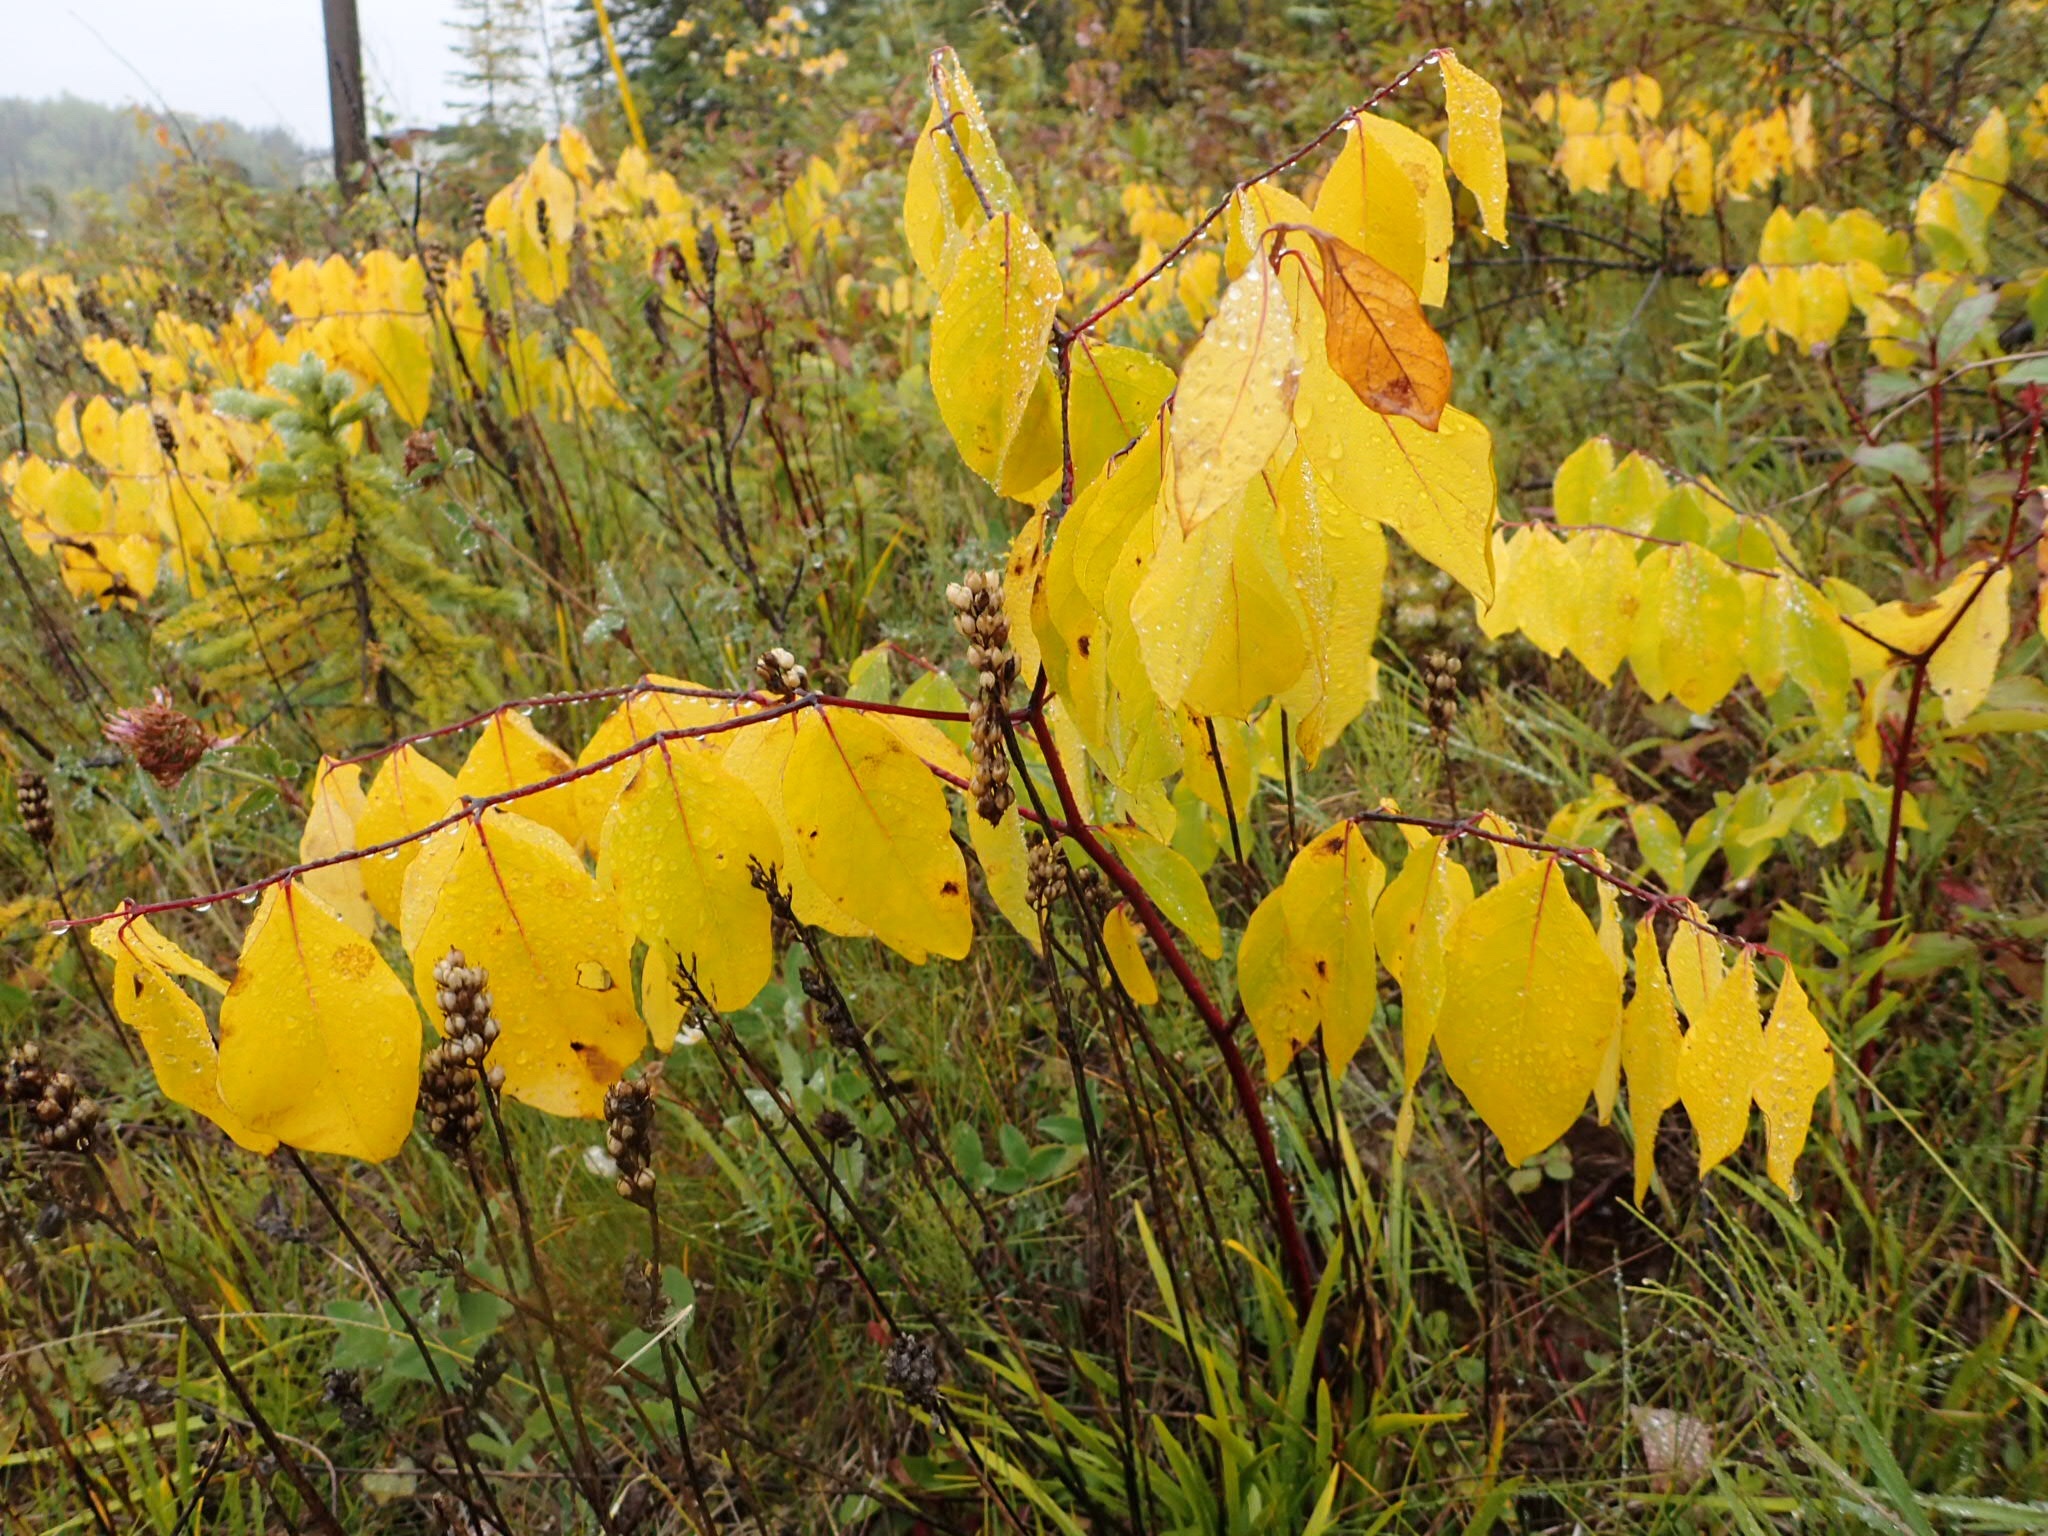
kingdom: Plantae
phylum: Tracheophyta
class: Magnoliopsida
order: Gentianales
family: Apocynaceae
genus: Apocynum
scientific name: Apocynum androsaemifolium
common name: Spreading dogbane
